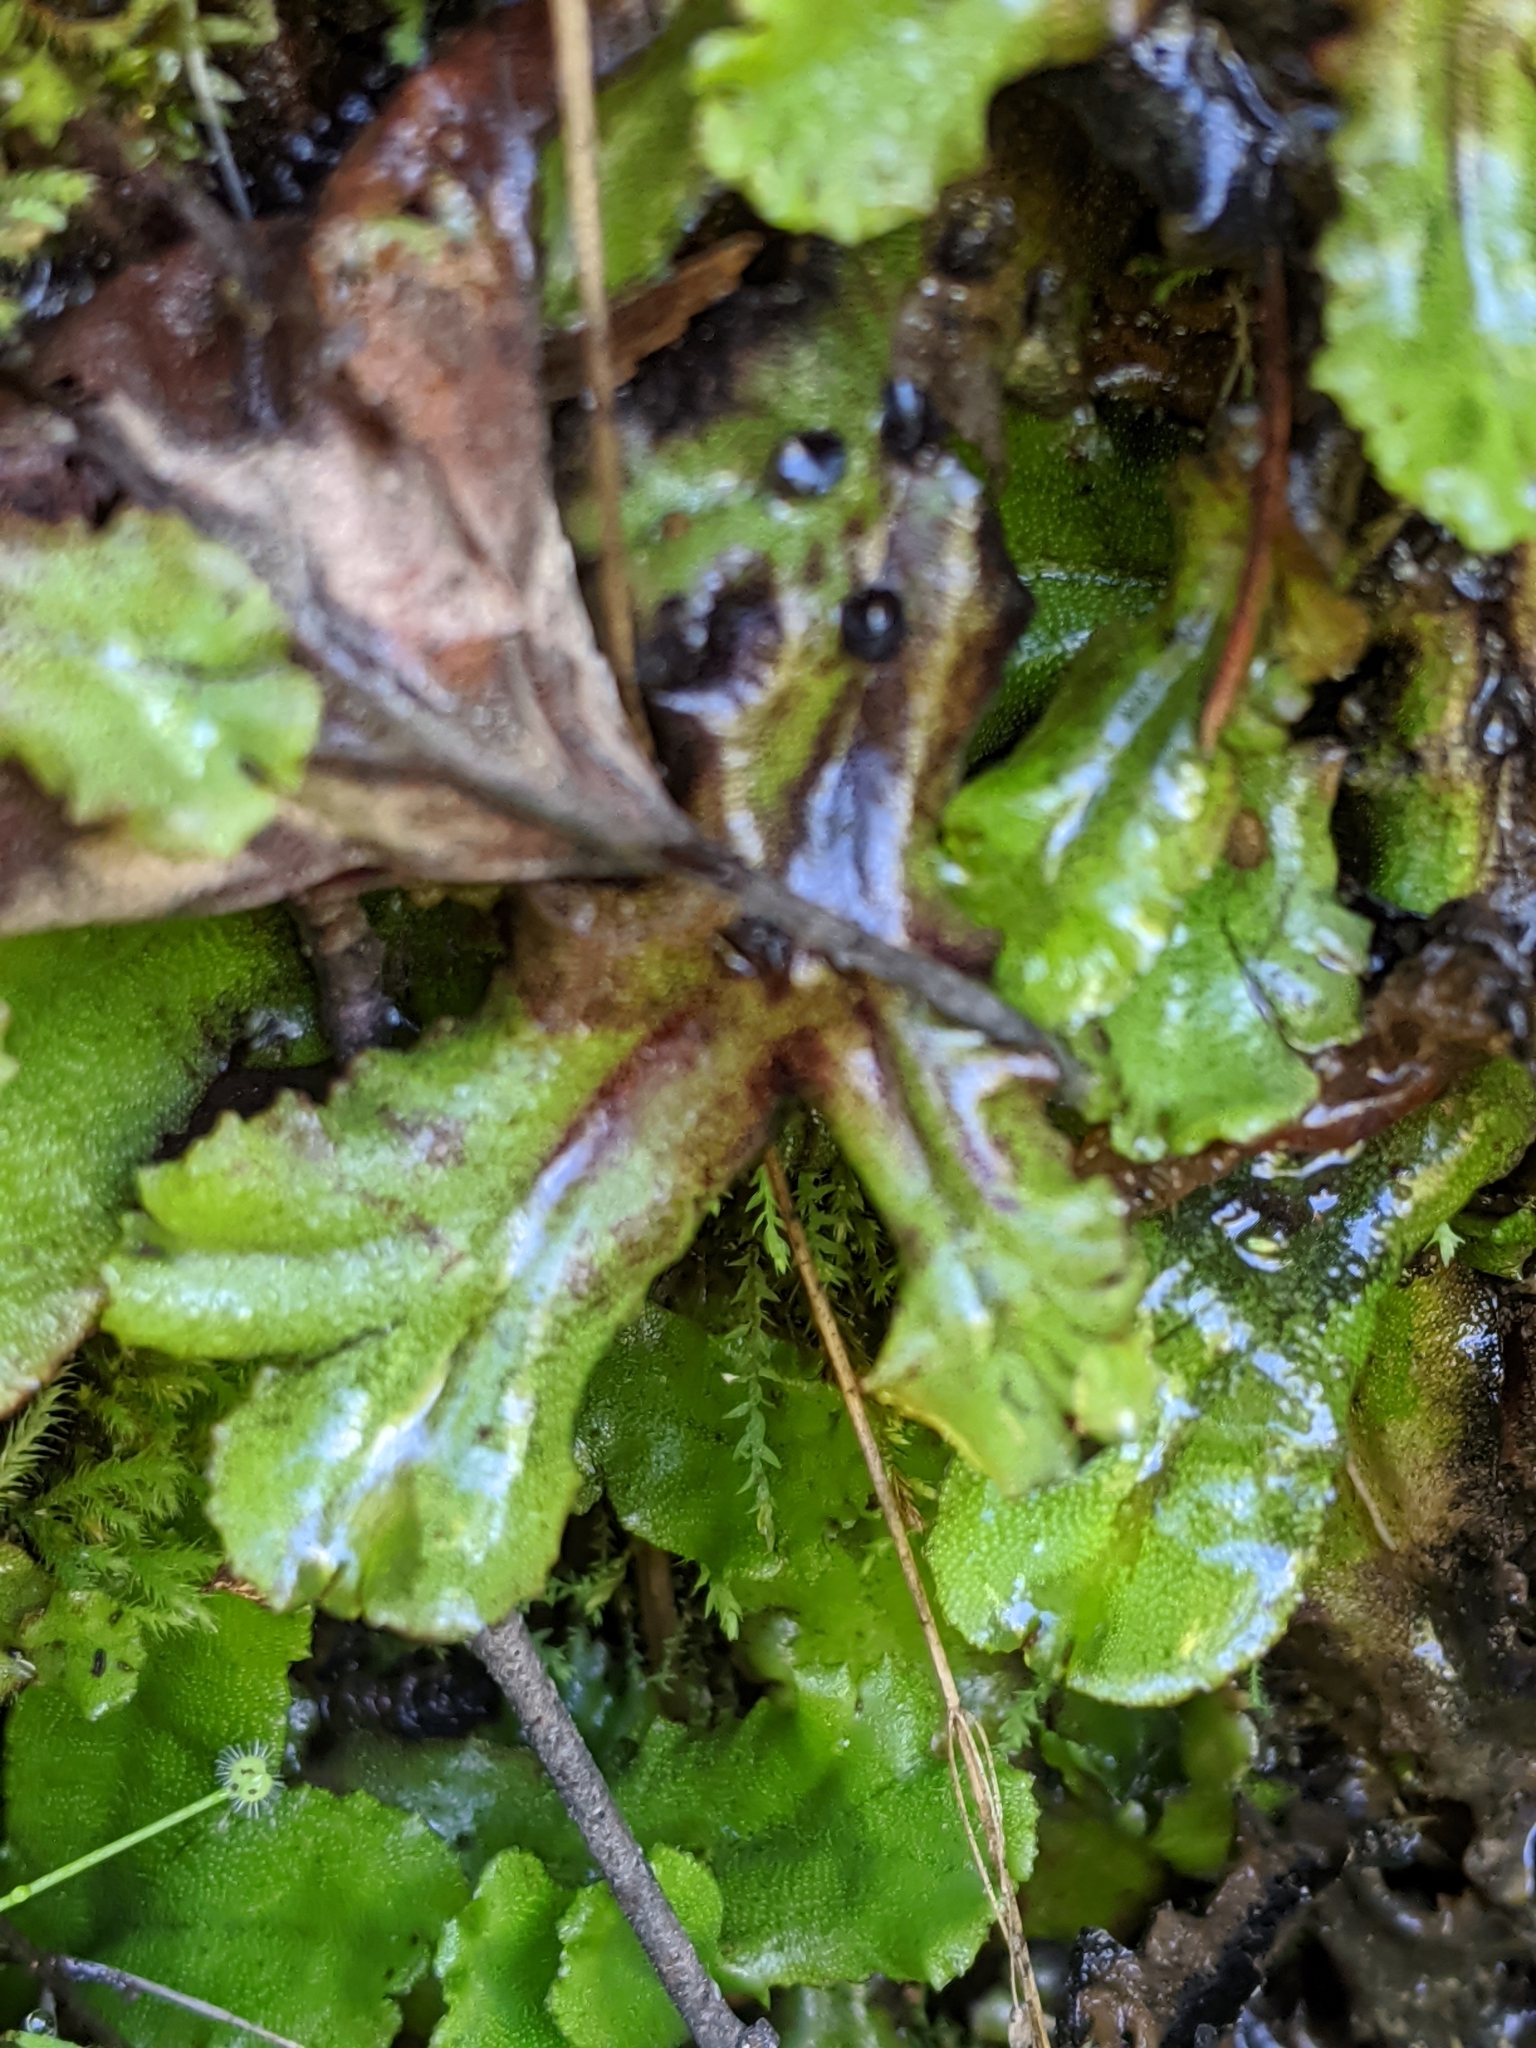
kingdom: Plantae
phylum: Marchantiophyta
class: Marchantiopsida
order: Marchantiales
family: Marchantiaceae
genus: Marchantia
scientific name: Marchantia polymorpha
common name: Common liverwort
